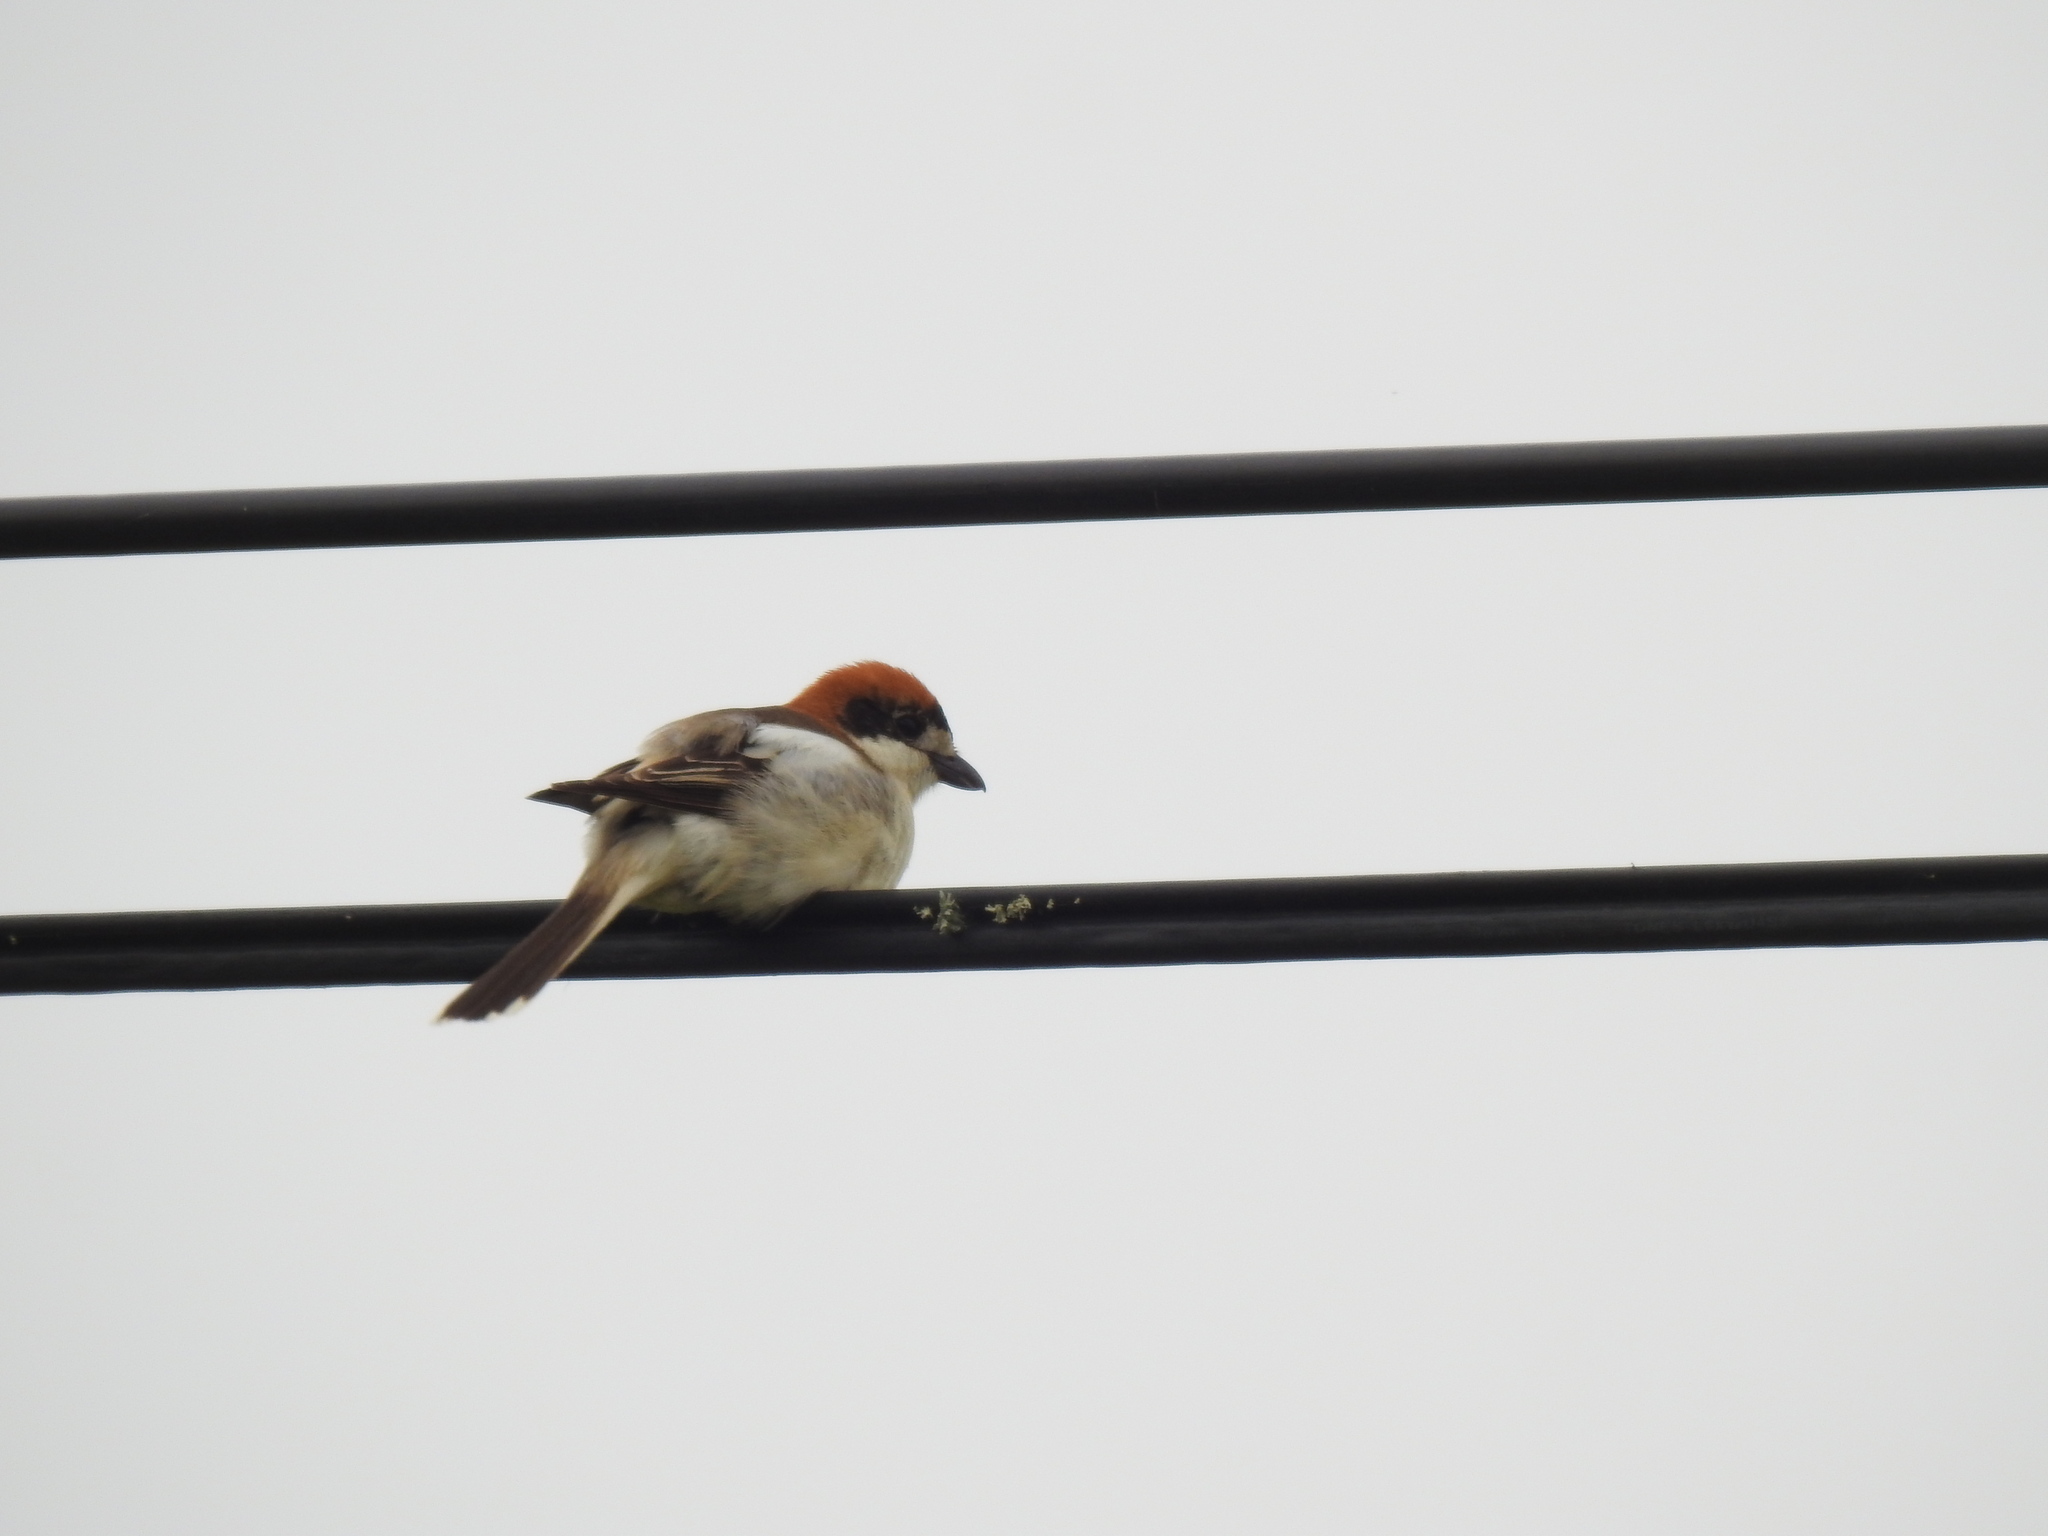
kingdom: Animalia
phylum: Chordata
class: Aves
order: Passeriformes
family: Laniidae
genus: Lanius
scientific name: Lanius senator
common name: Woodchat shrike
